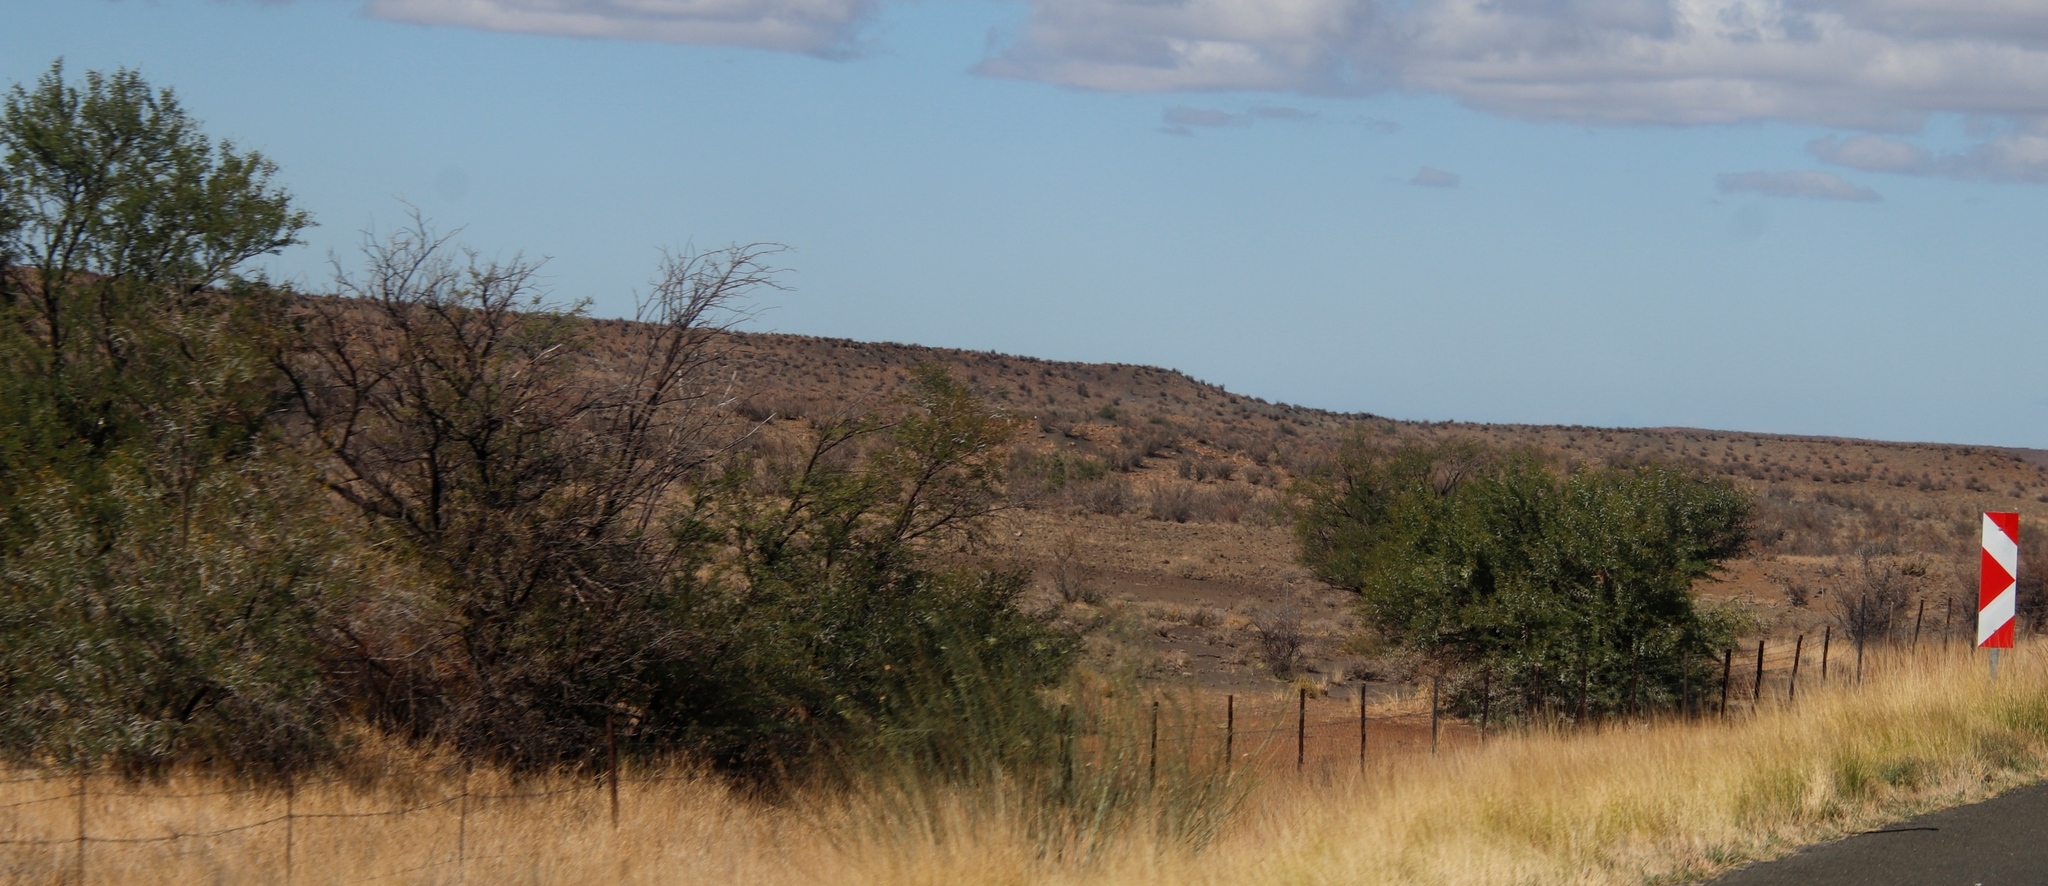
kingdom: Plantae
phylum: Tracheophyta
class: Magnoliopsida
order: Fabales
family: Fabaceae
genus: Vachellia
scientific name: Vachellia karroo
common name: Sweet thorn
